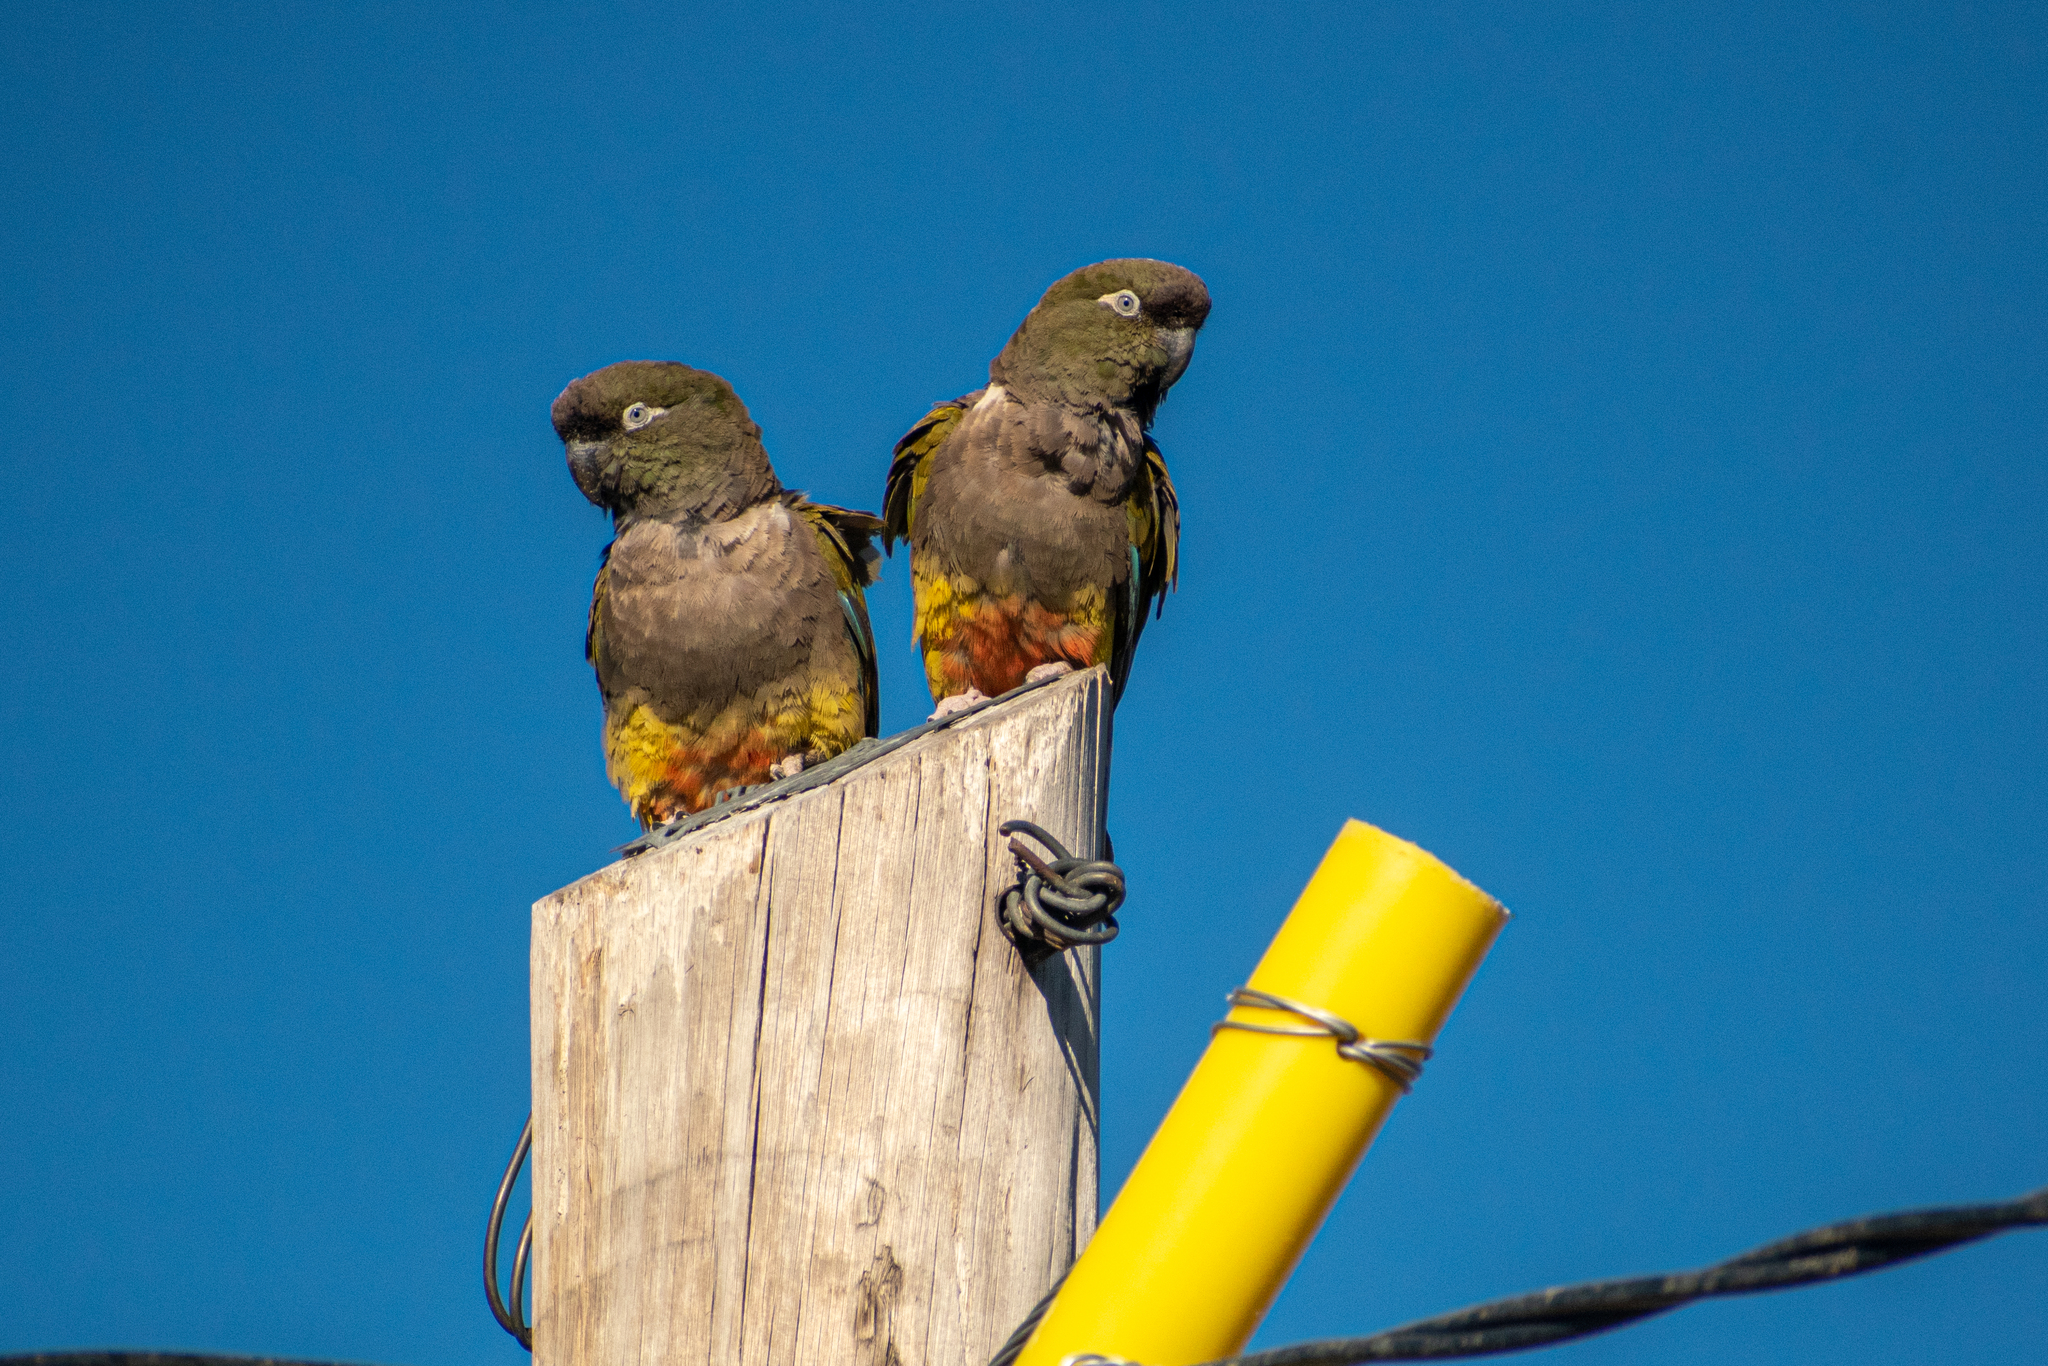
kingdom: Animalia
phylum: Chordata
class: Aves
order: Psittaciformes
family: Psittacidae
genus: Cyanoliseus
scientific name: Cyanoliseus patagonus
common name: Burrowing parrot
